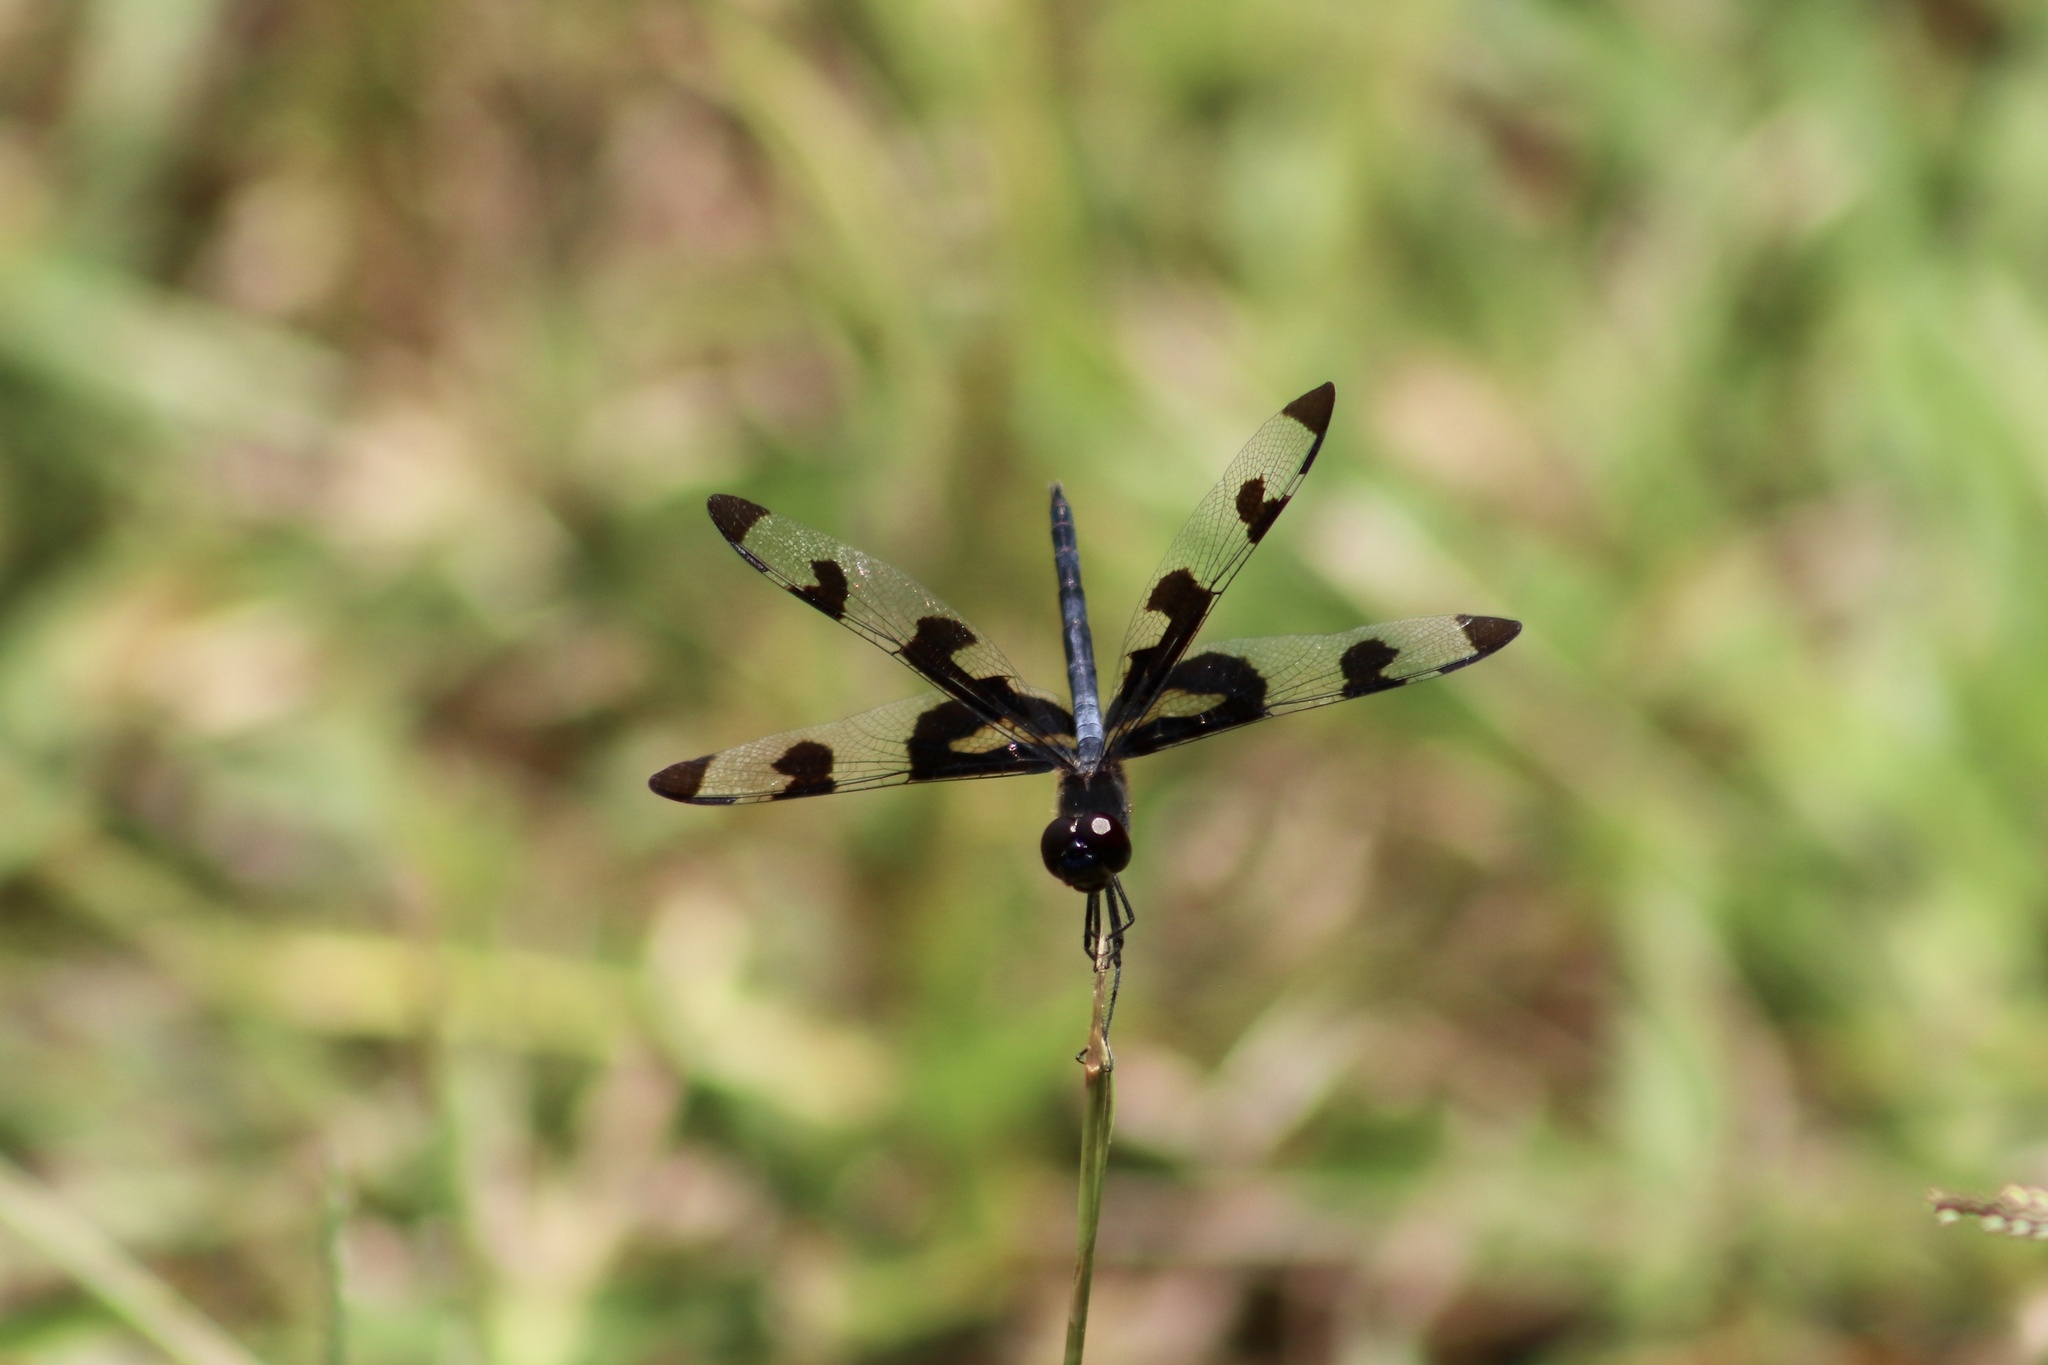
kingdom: Animalia
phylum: Arthropoda
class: Insecta
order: Odonata
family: Libellulidae
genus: Celithemis
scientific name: Celithemis fasciata
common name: Banded pennant
